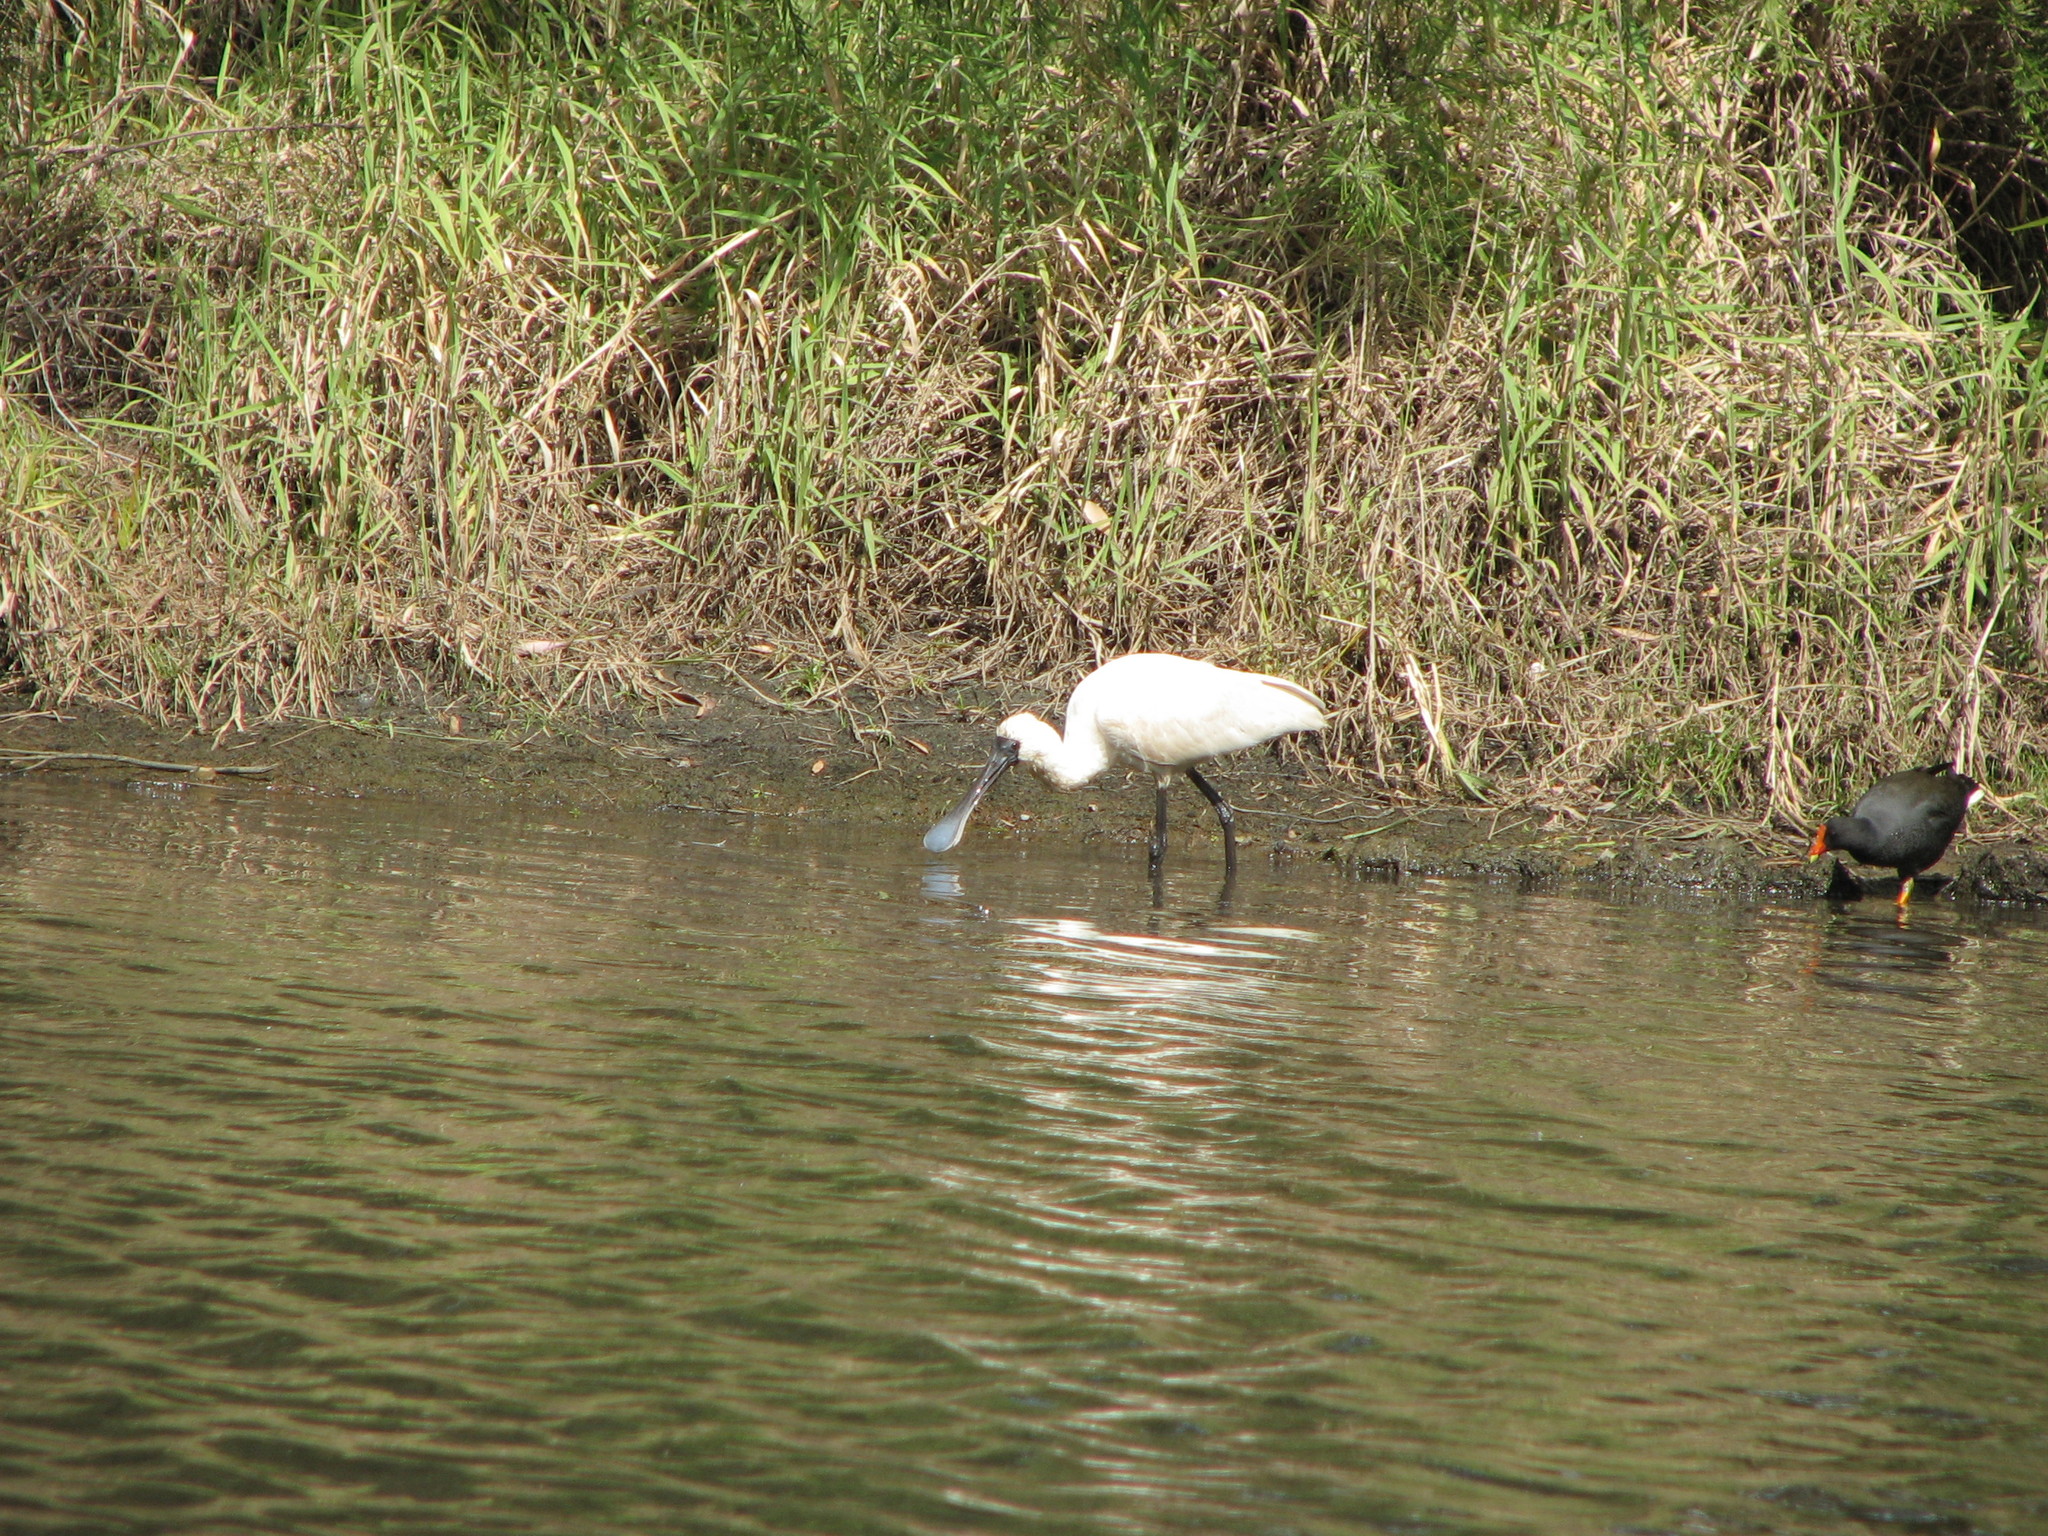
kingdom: Animalia
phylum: Chordata
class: Aves
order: Pelecaniformes
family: Threskiornithidae
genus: Platalea
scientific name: Platalea regia
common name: Royal spoonbill
